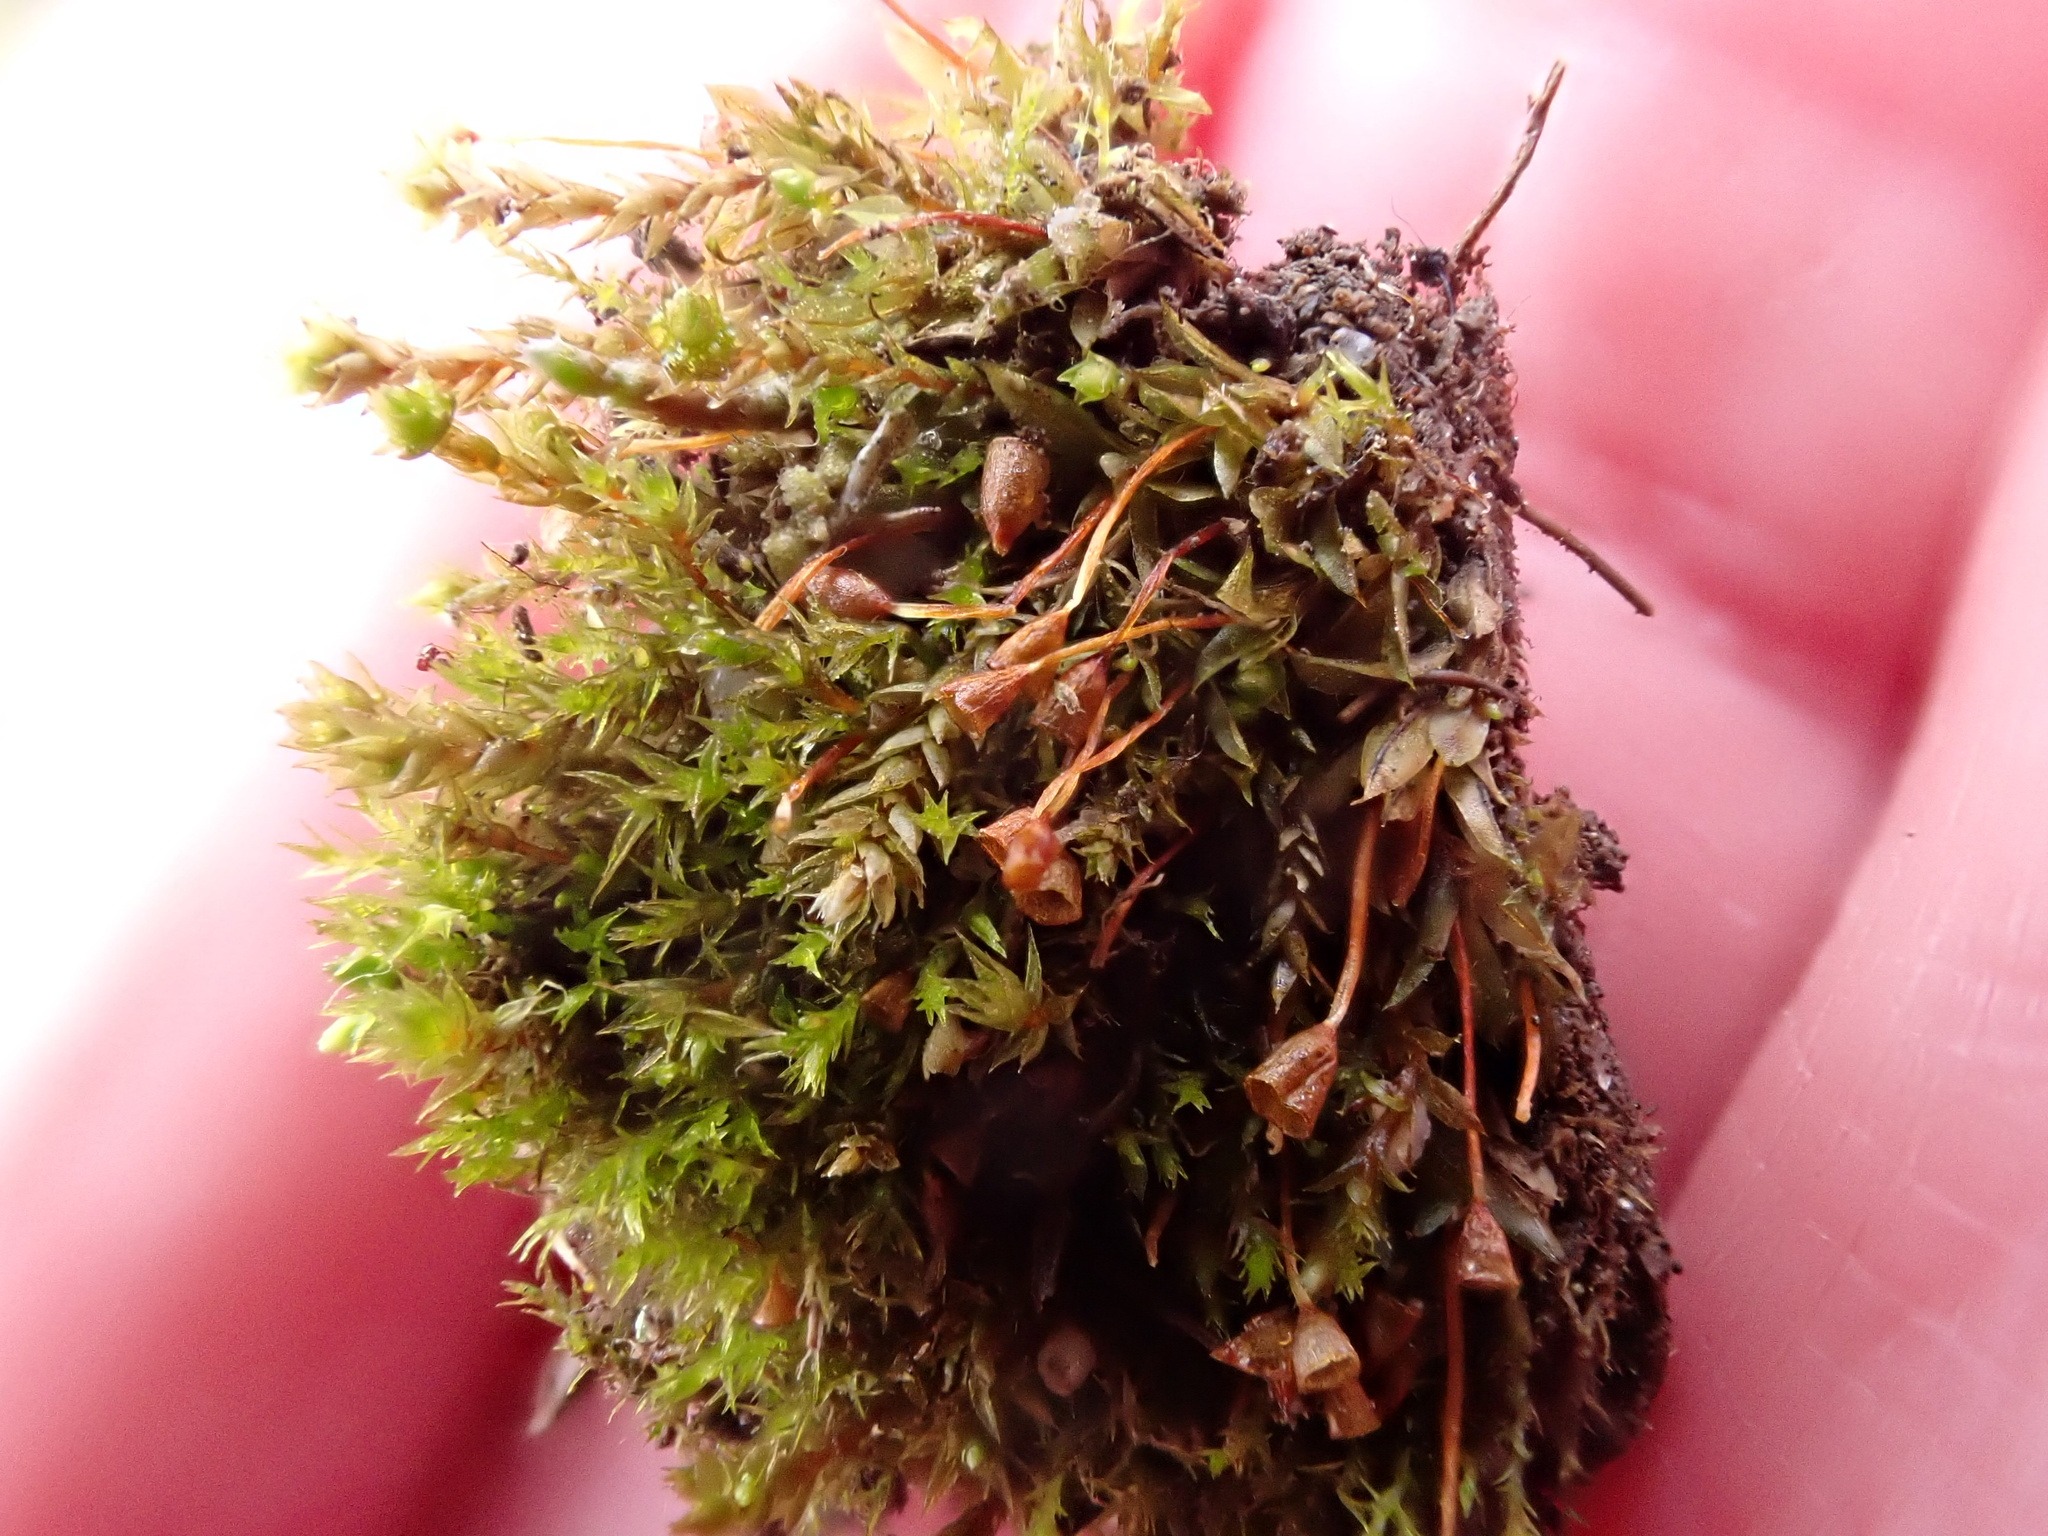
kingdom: Plantae
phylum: Bryophyta
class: Bryopsida
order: Pottiales
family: Pottiaceae
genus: Tortula
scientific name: Tortula caucasica
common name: Blunt-fruited pottia
